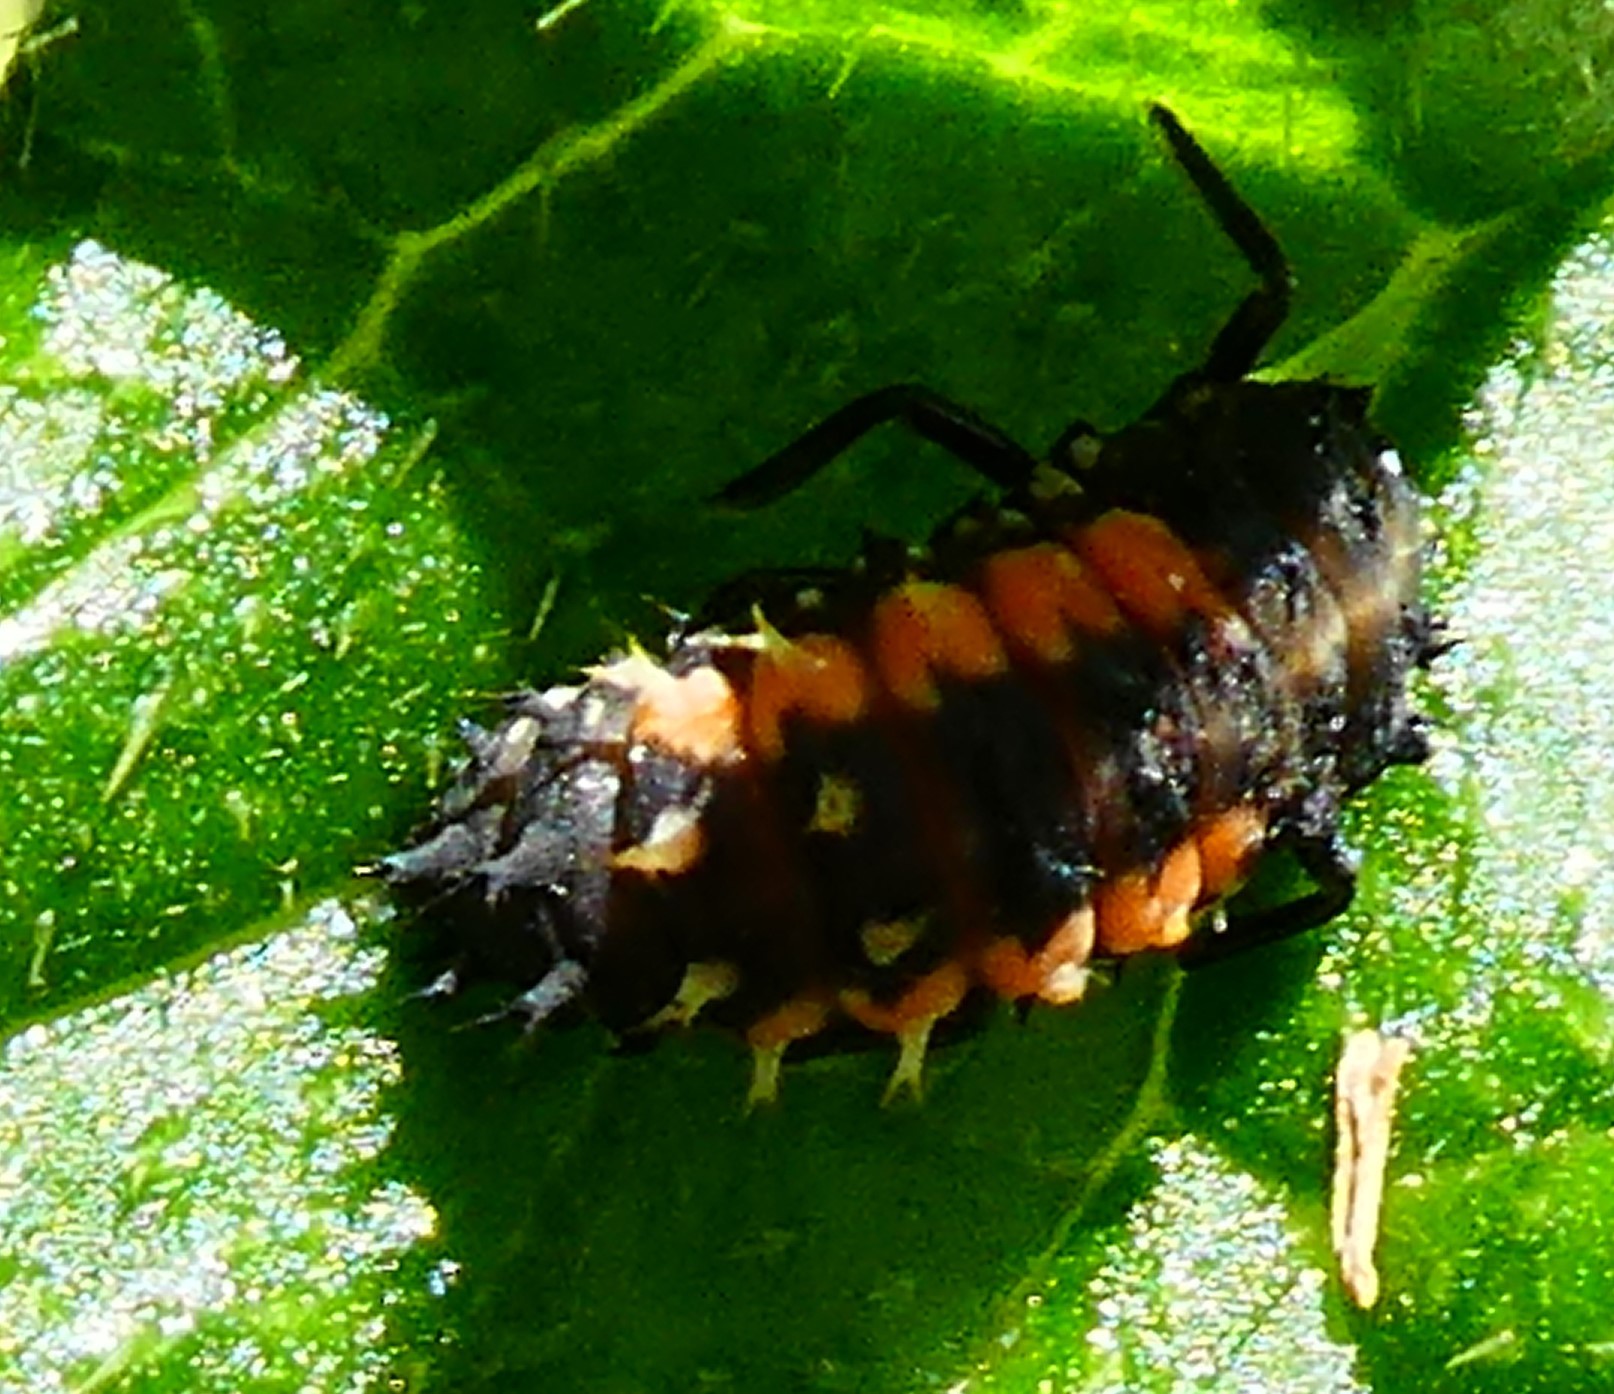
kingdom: Animalia
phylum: Arthropoda
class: Insecta
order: Coleoptera
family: Coccinellidae
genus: Harmonia
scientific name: Harmonia axyridis
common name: Harlequin ladybird
